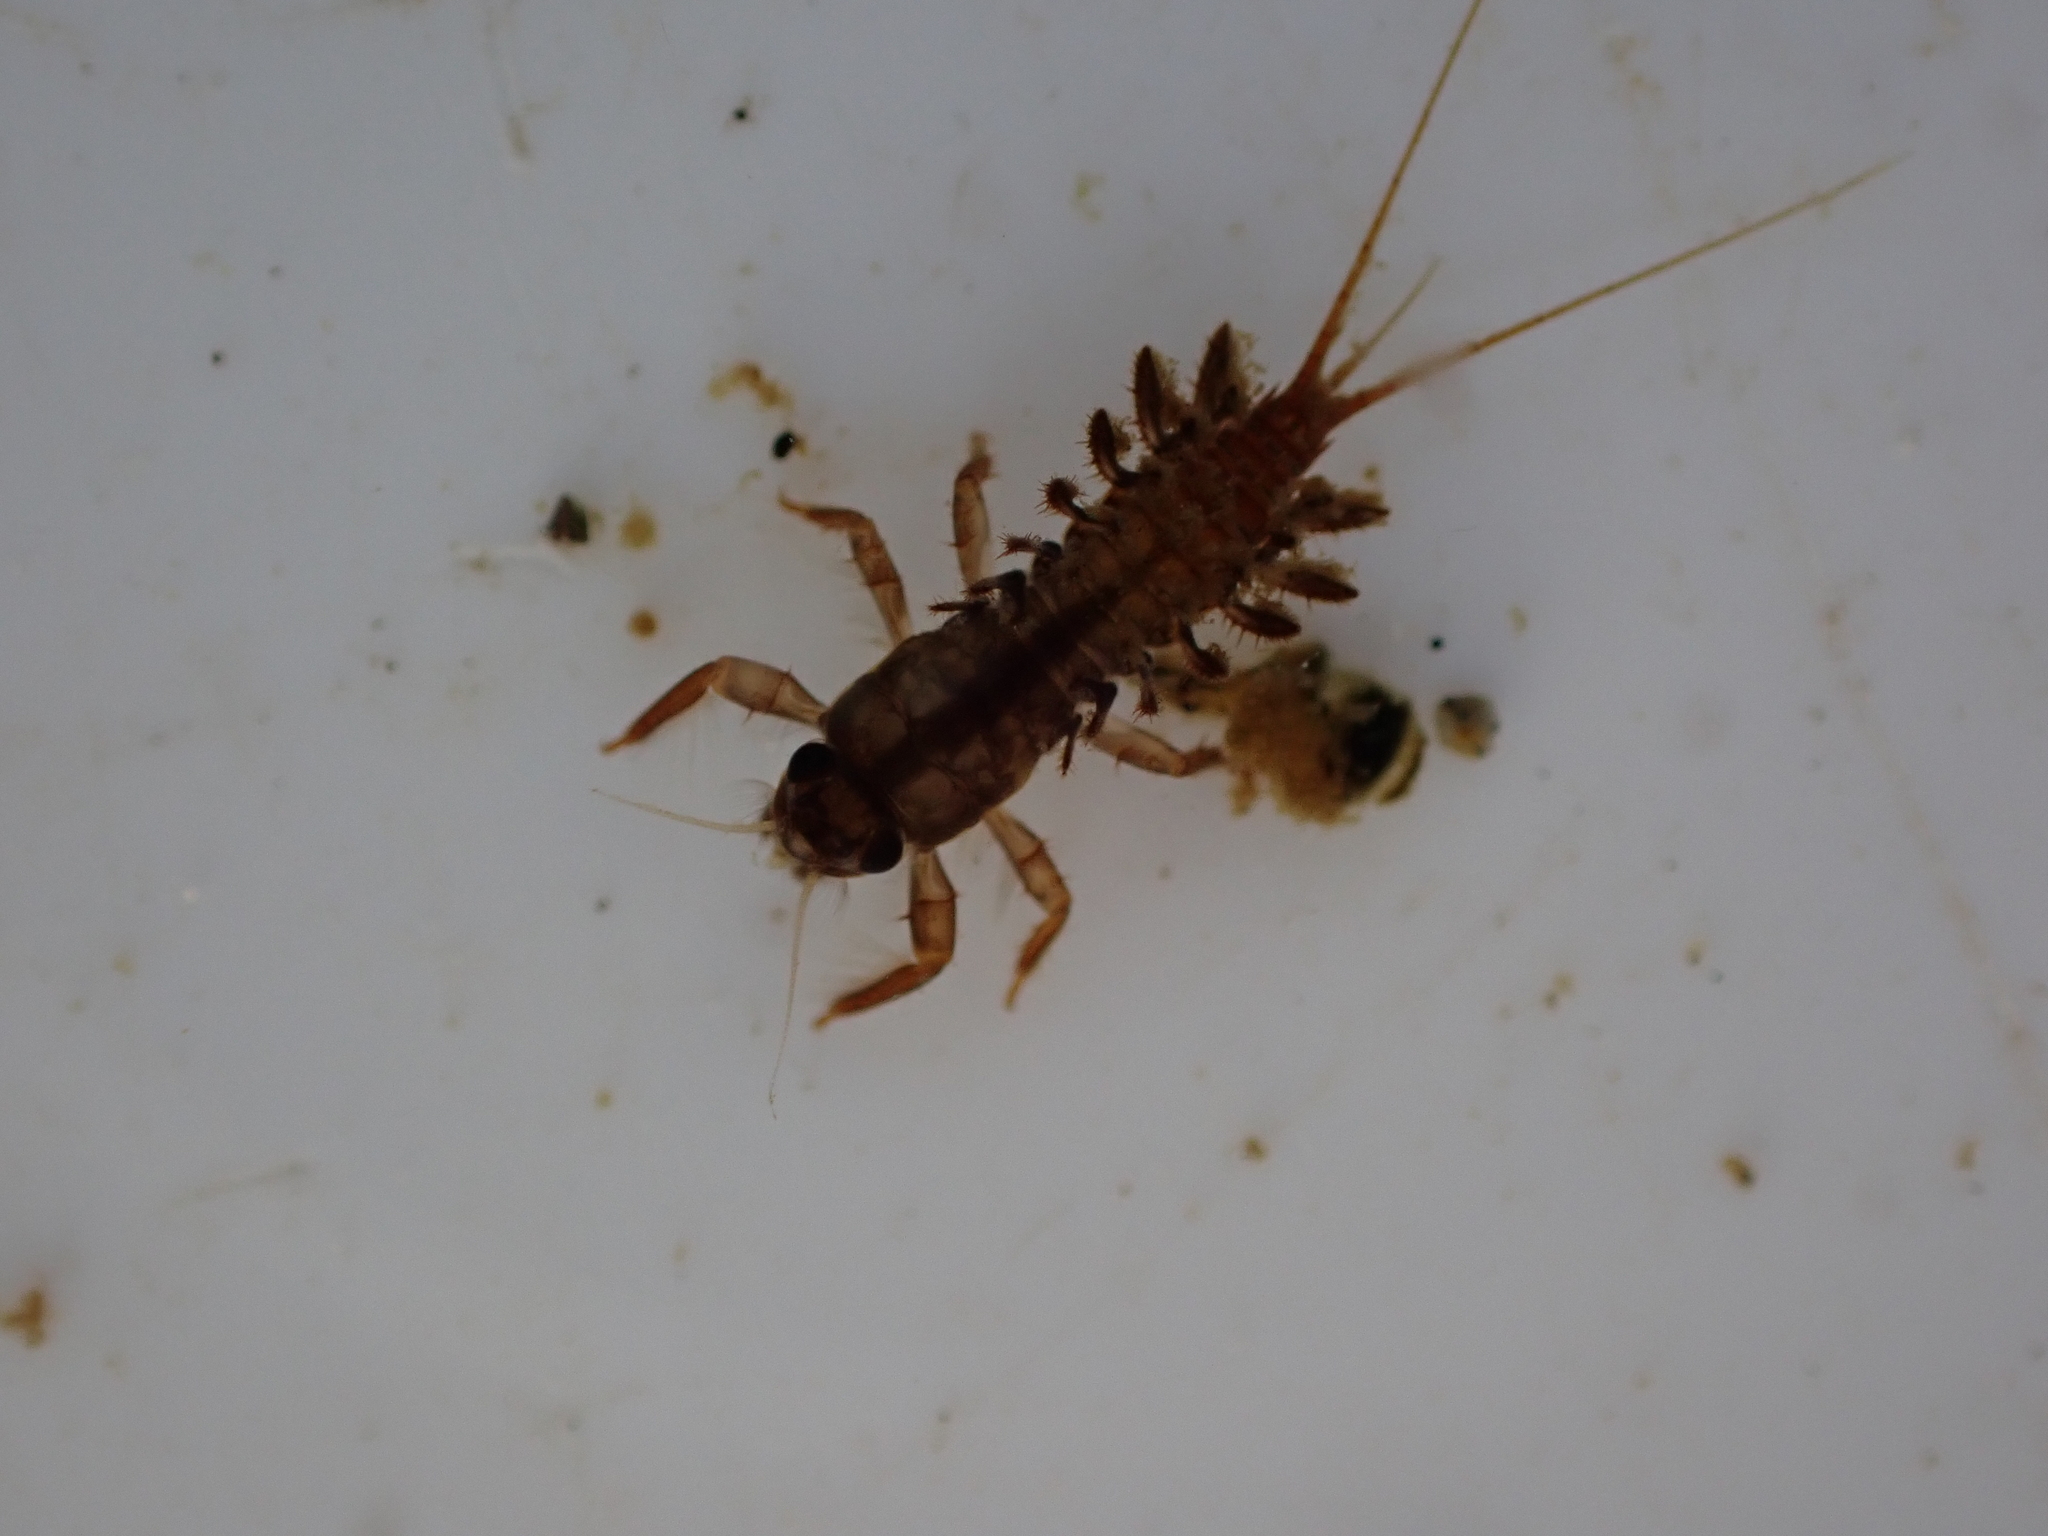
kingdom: Animalia
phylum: Arthropoda
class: Insecta
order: Ephemeroptera
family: Coloburiscidae
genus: Coloburiscus
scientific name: Coloburiscus humeralis
